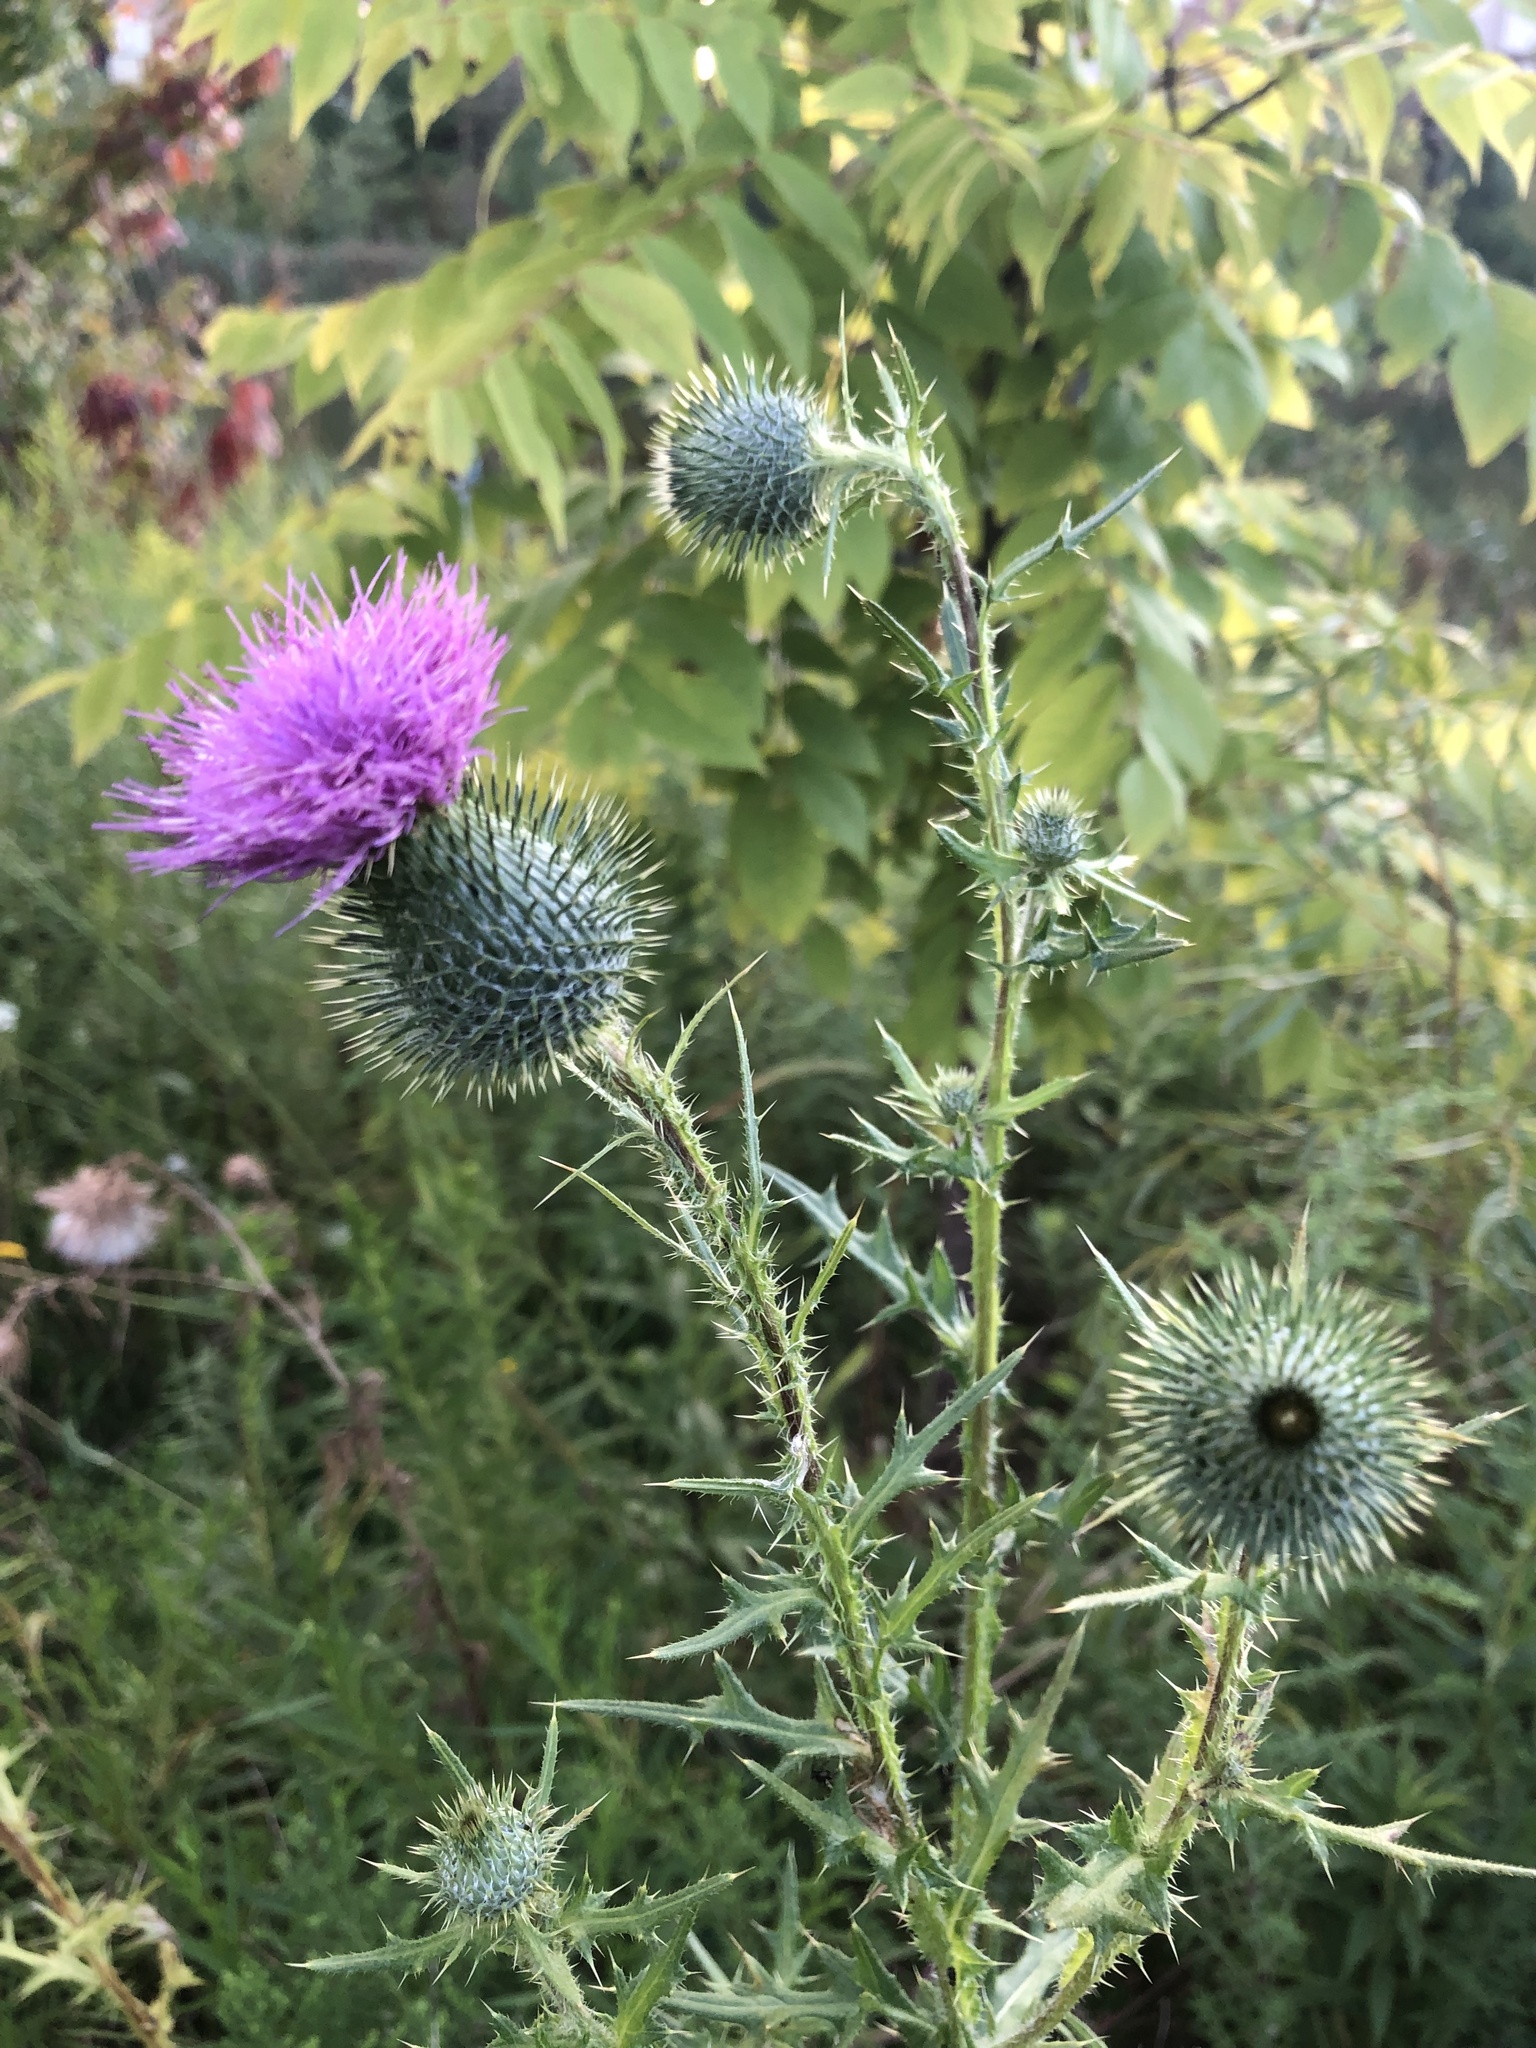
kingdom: Plantae
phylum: Tracheophyta
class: Magnoliopsida
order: Asterales
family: Asteraceae
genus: Cirsium
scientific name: Cirsium vulgare
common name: Bull thistle
